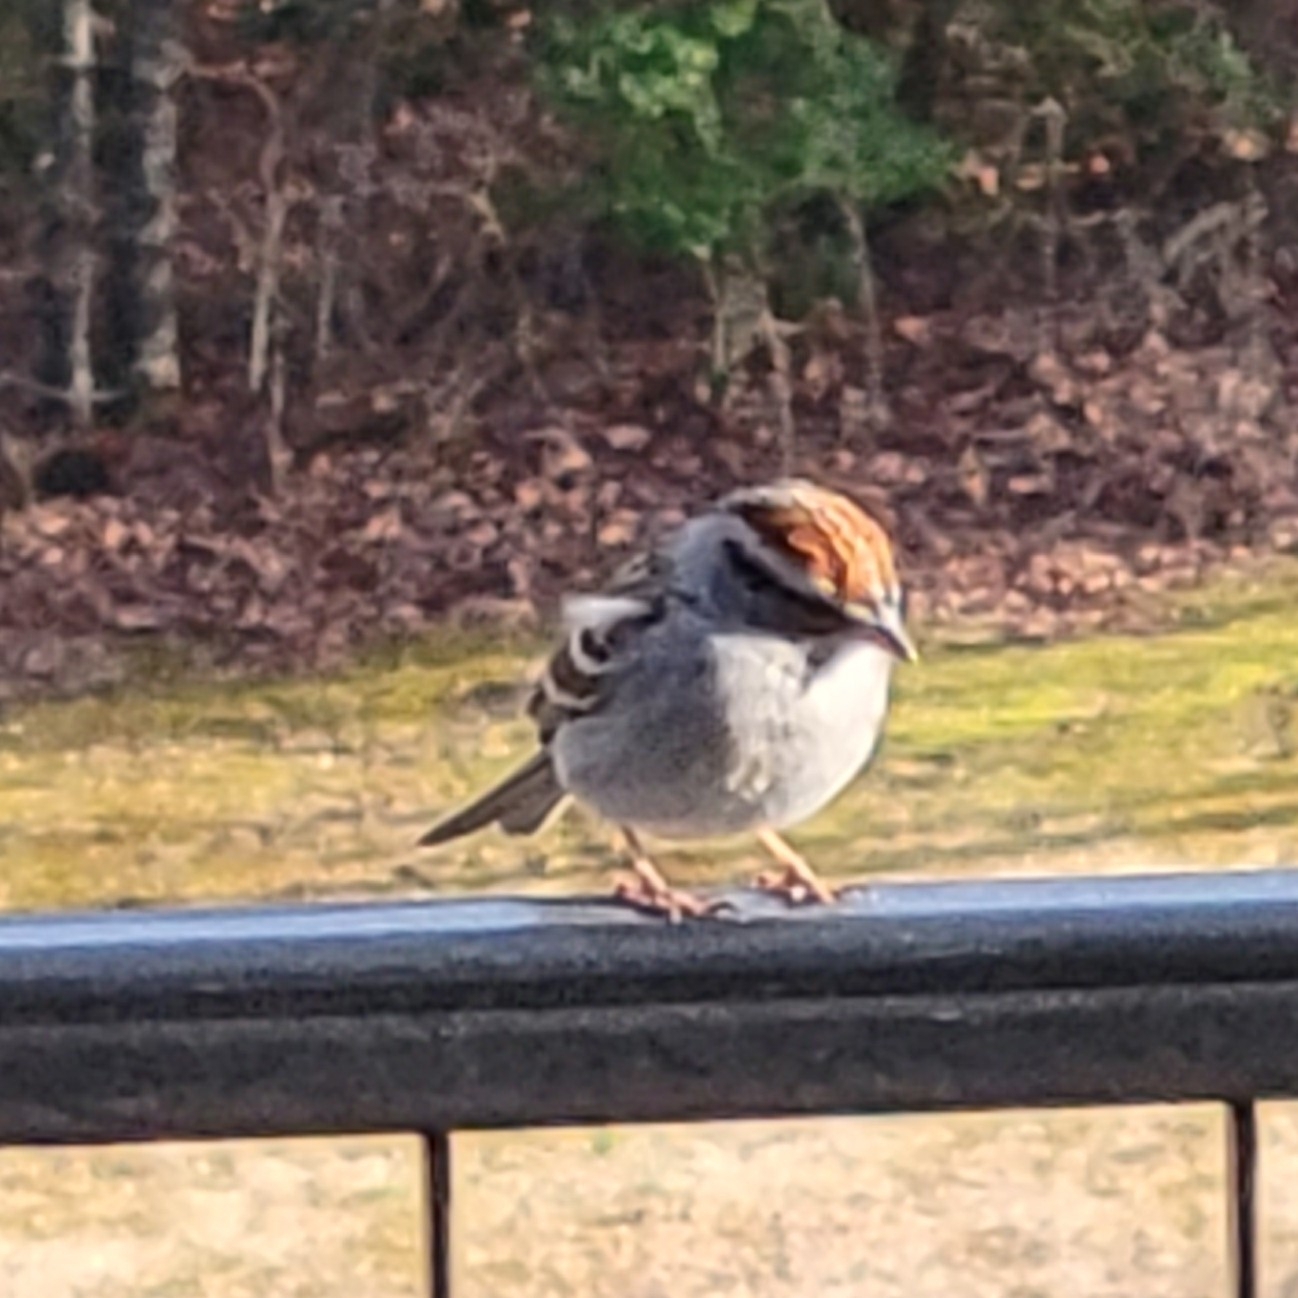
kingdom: Animalia
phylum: Chordata
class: Aves
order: Passeriformes
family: Passerellidae
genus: Spizella
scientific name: Spizella passerina
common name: Chipping sparrow
